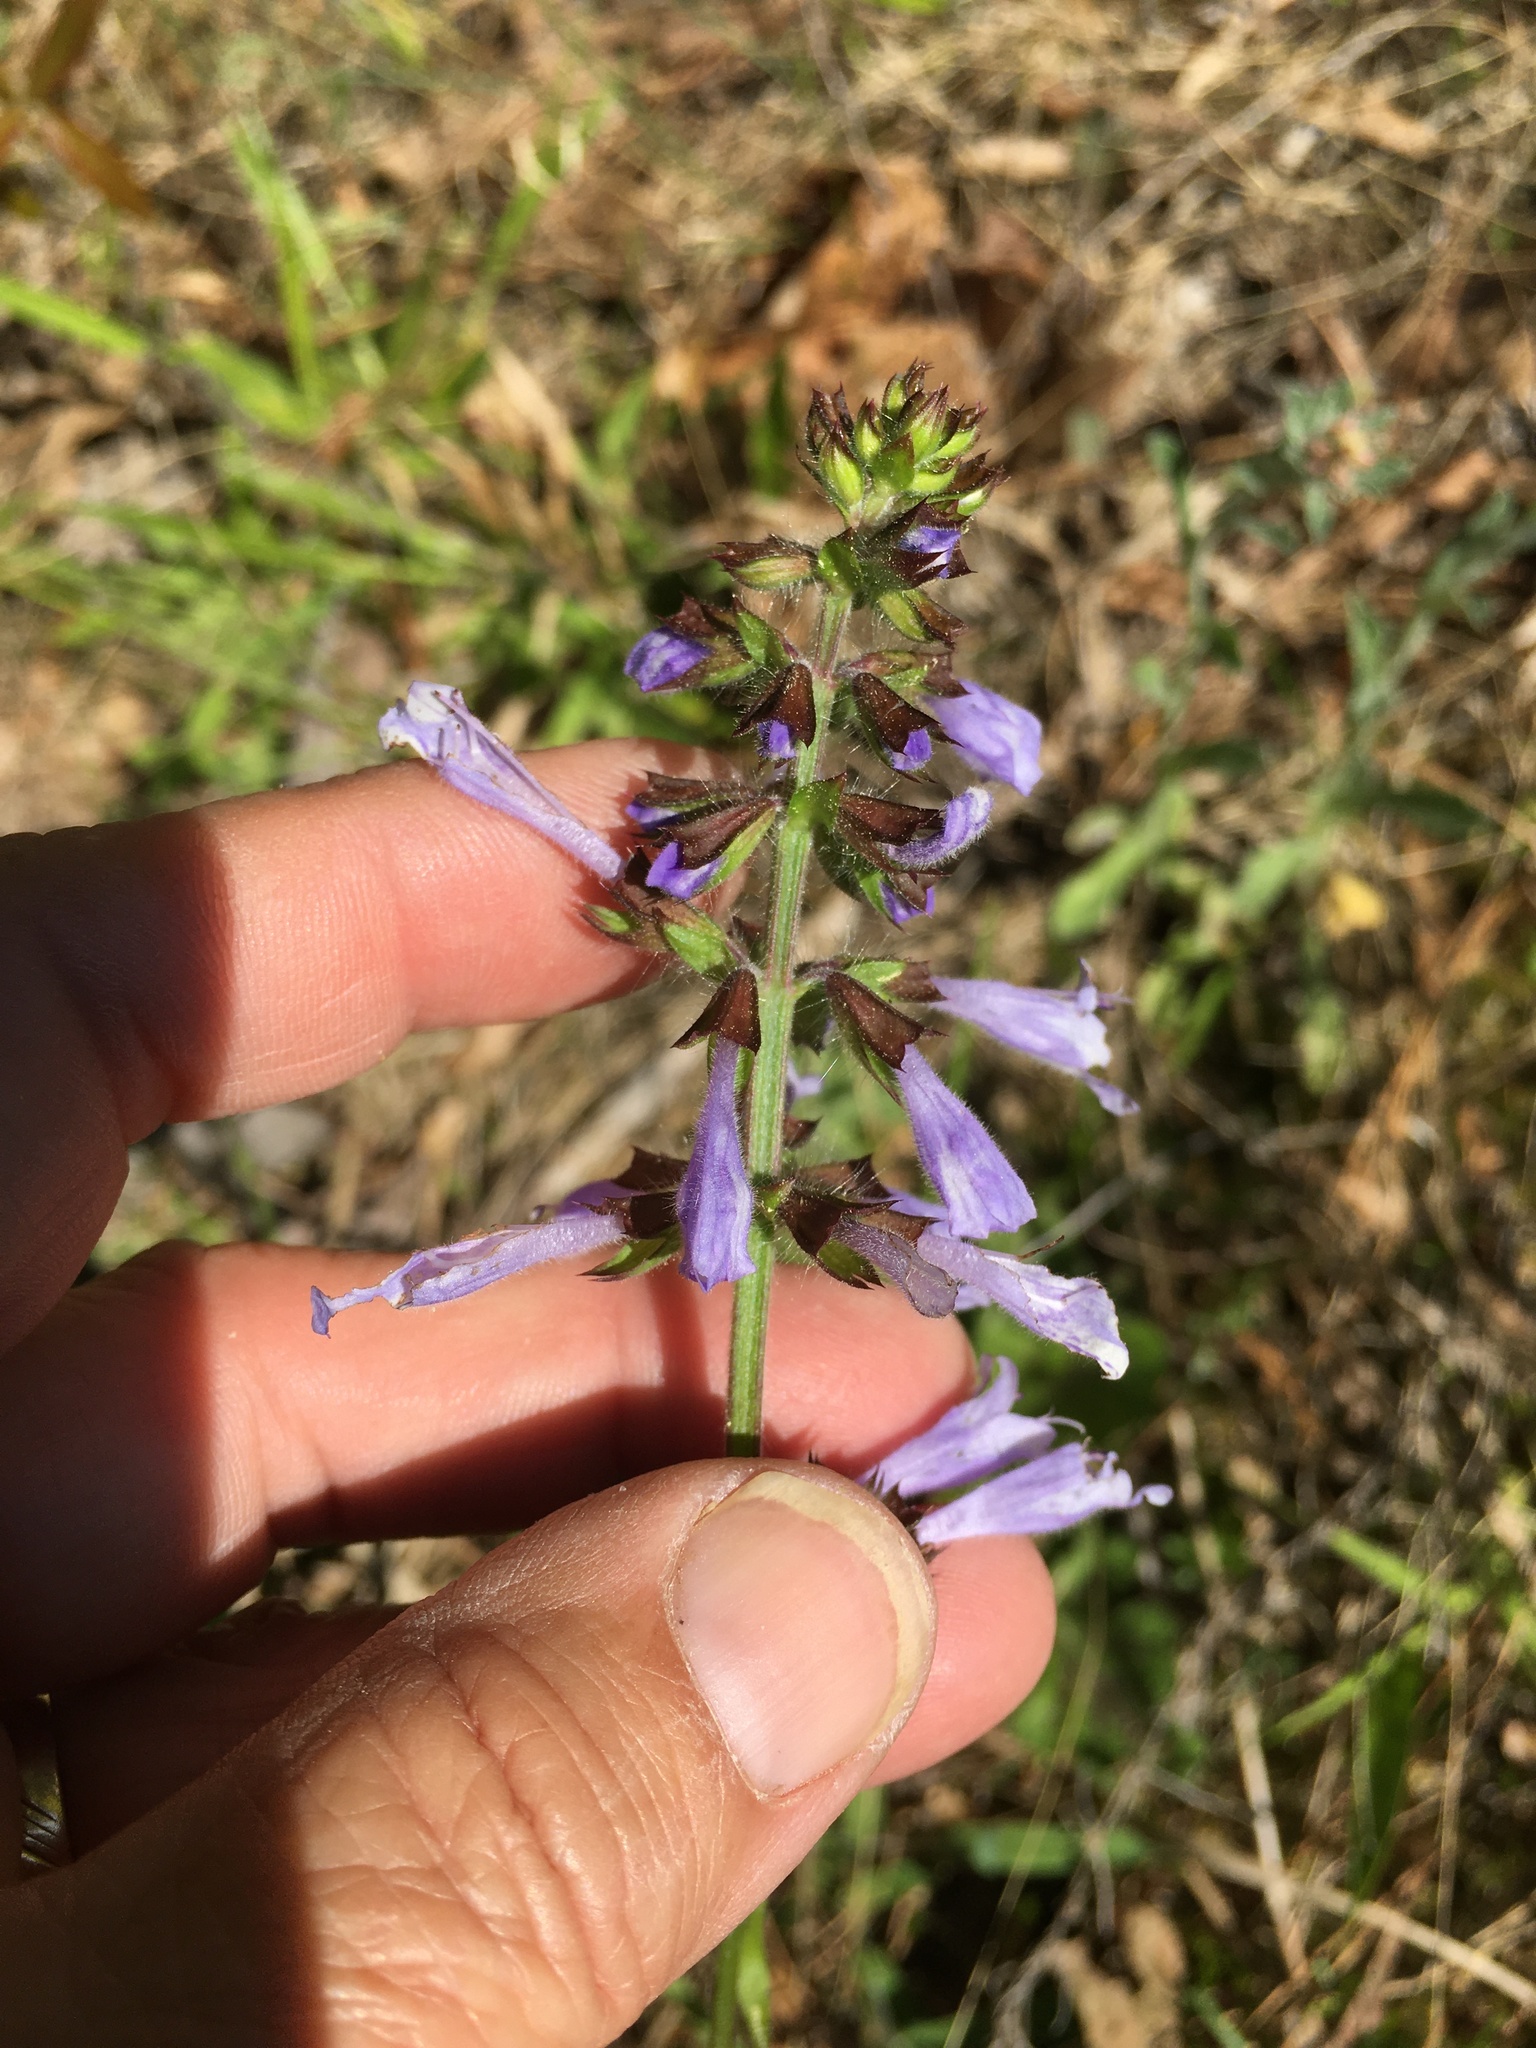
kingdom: Plantae
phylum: Tracheophyta
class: Magnoliopsida
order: Lamiales
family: Lamiaceae
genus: Salvia
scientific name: Salvia lyrata
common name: Cancerweed
